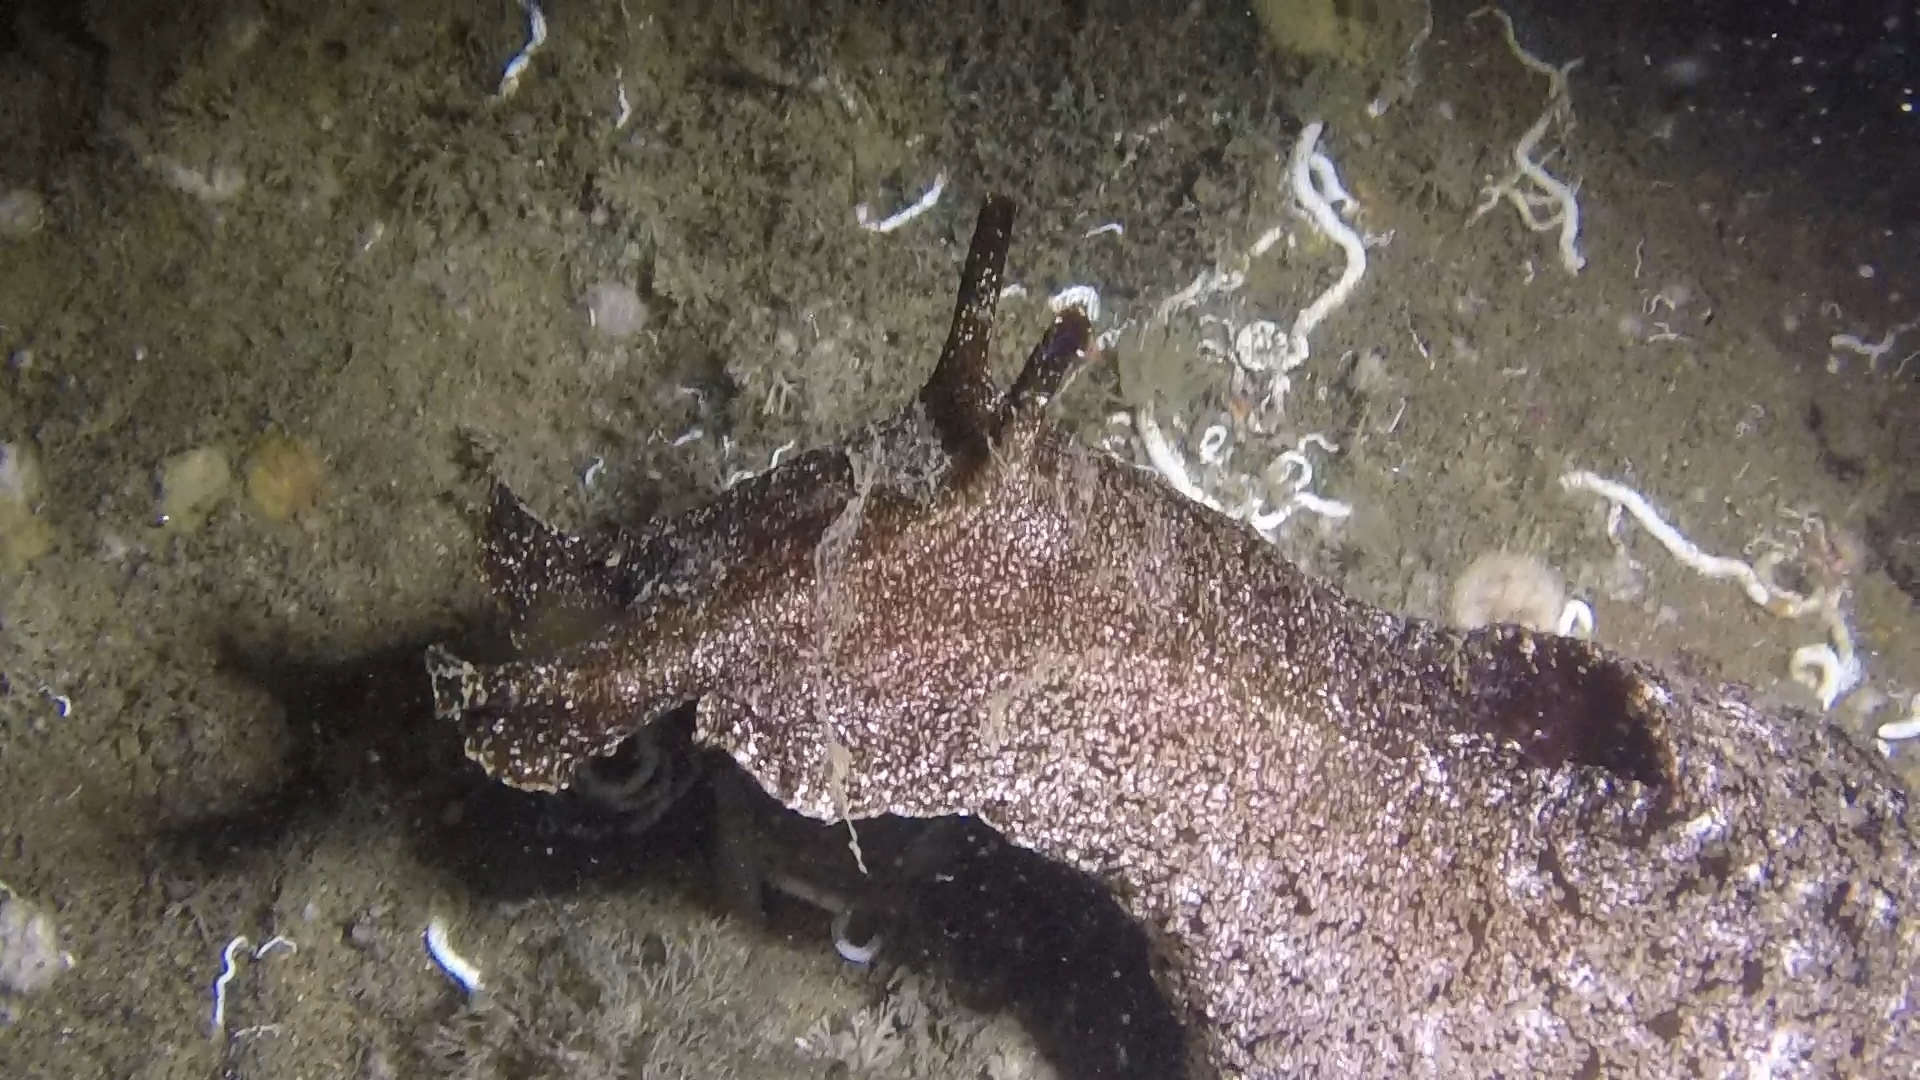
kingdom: Animalia
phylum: Mollusca
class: Gastropoda
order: Aplysiida
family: Aplysiidae
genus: Aplysia
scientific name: Aplysia californica
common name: California seahare
